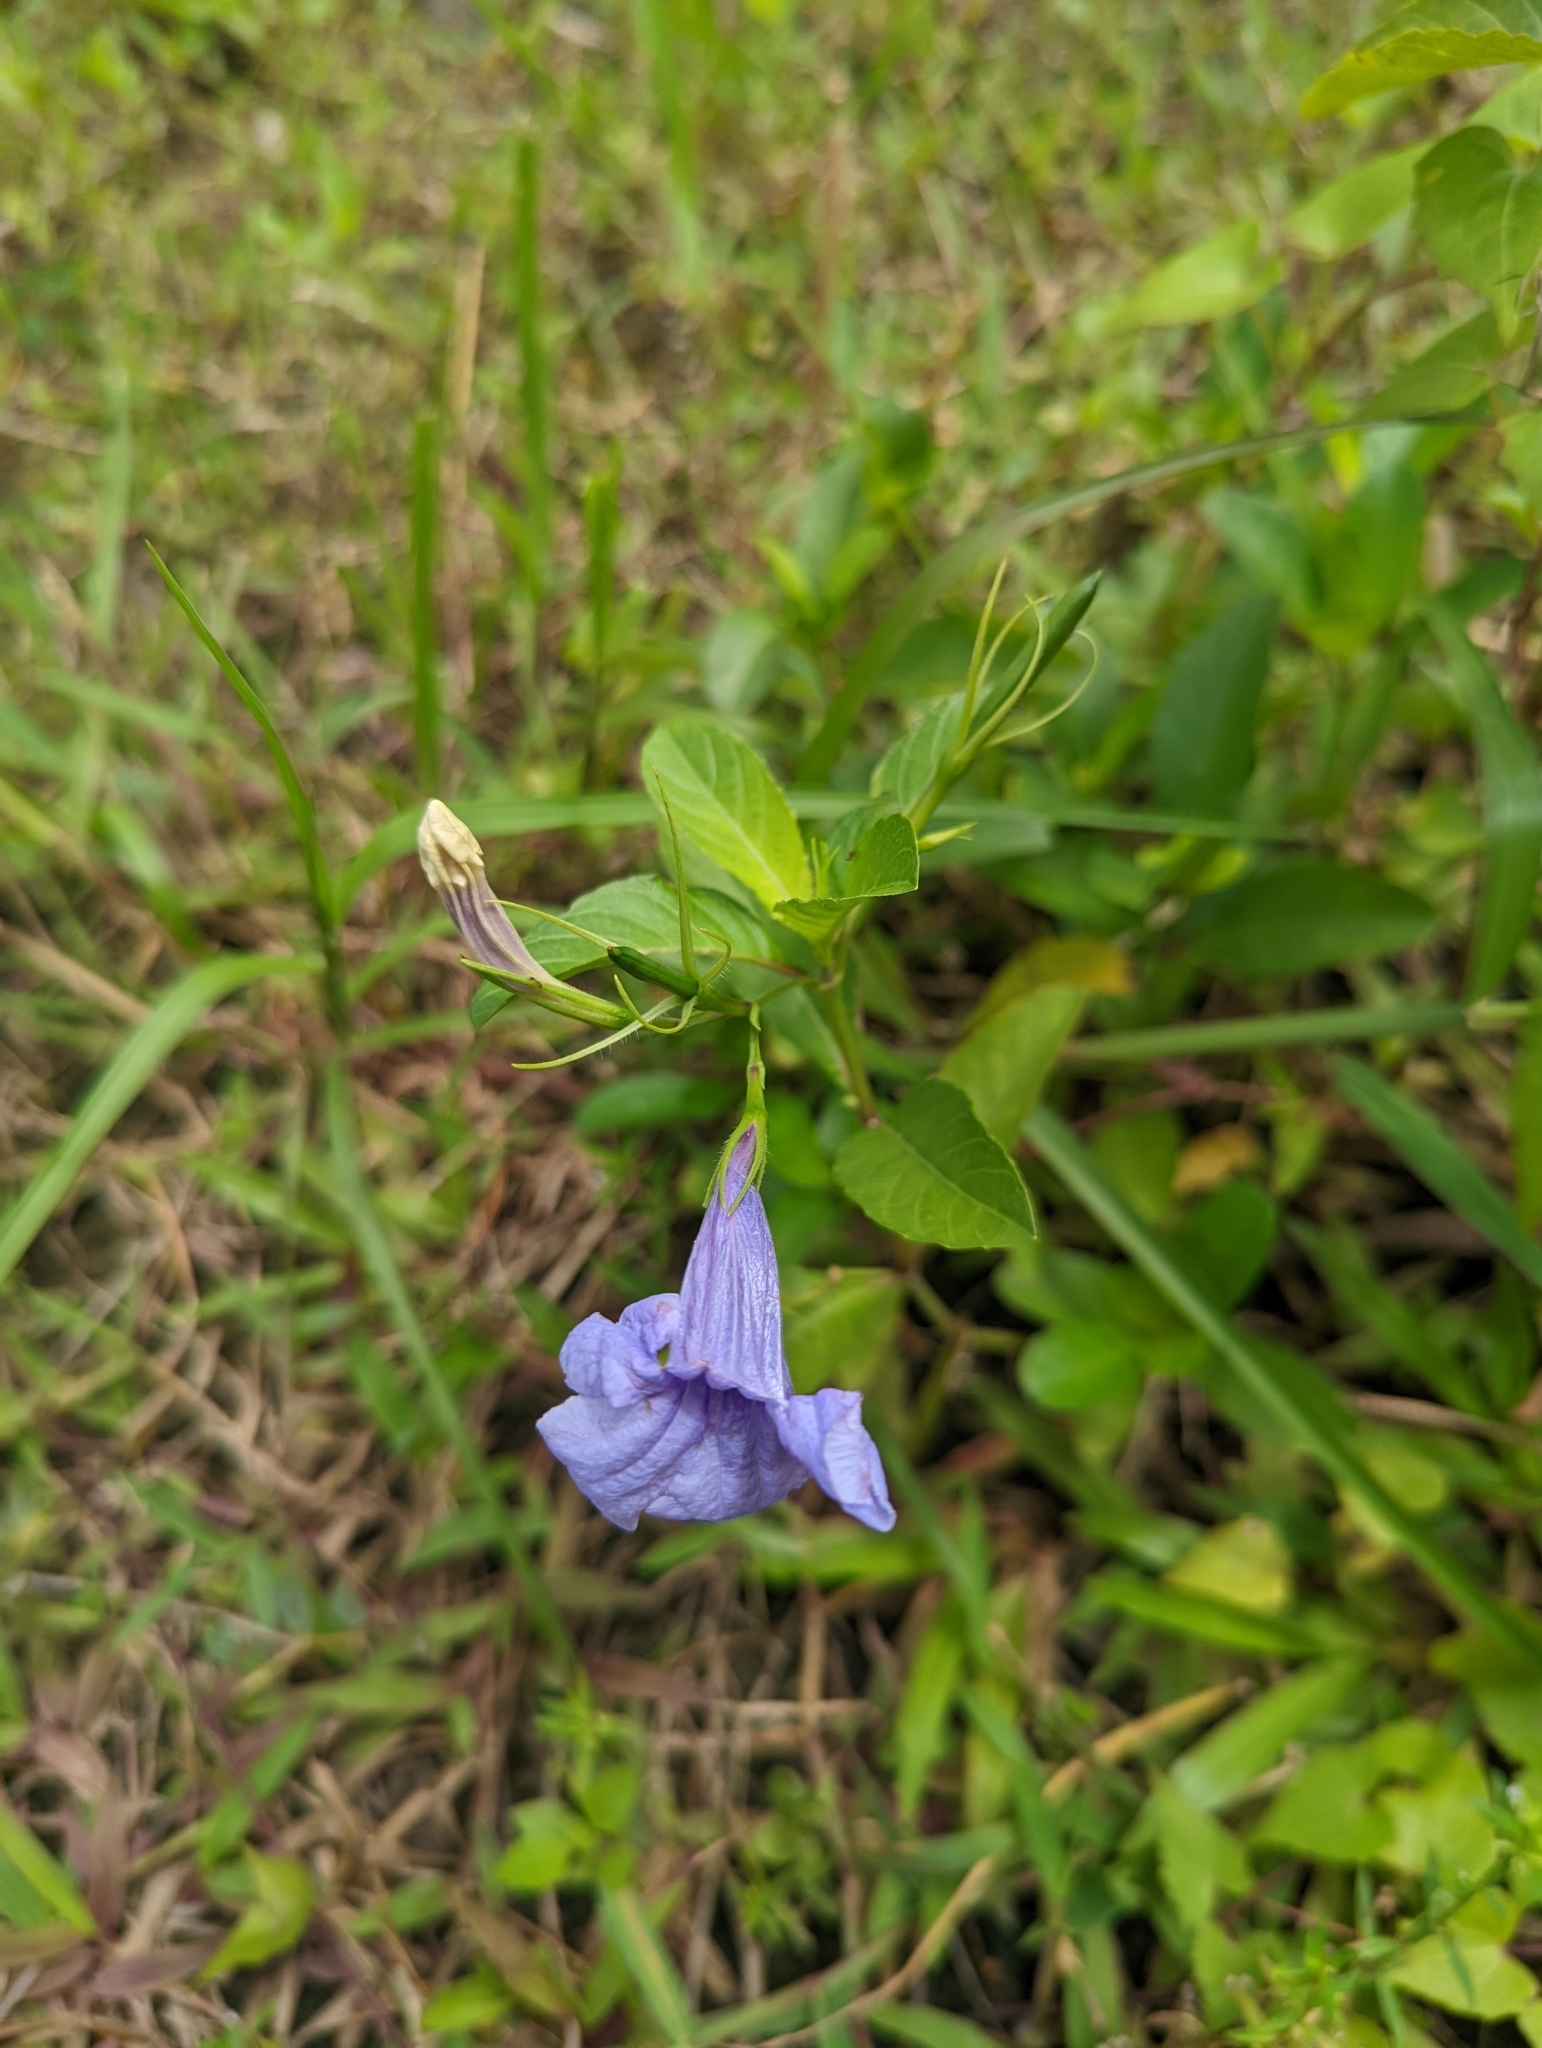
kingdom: Plantae
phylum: Tracheophyta
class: Magnoliopsida
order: Lamiales
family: Acanthaceae
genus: Ruellia
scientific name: Ruellia tuberosa
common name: Devil's bit
